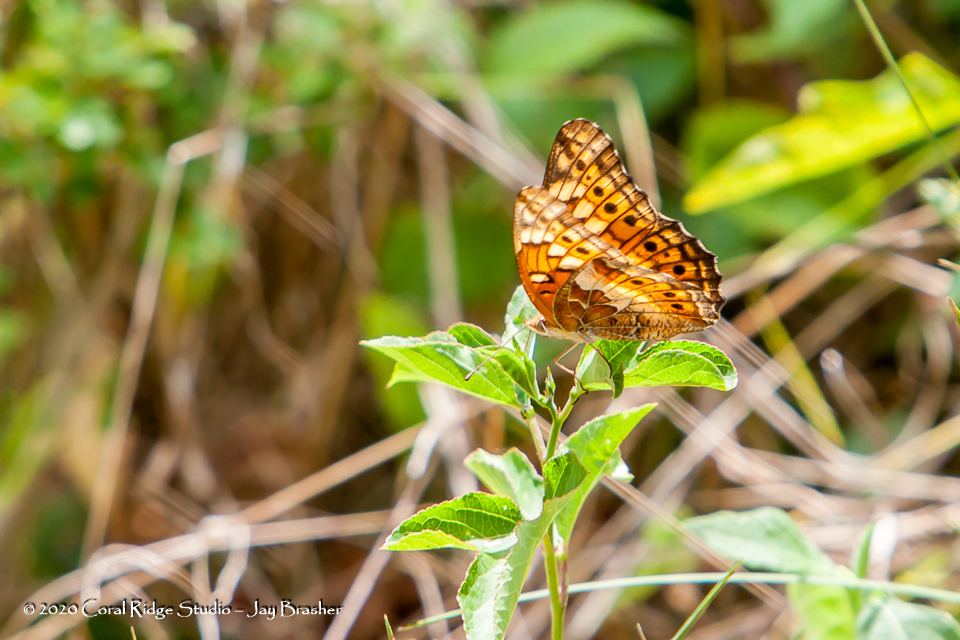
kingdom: Animalia
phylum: Arthropoda
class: Insecta
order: Lepidoptera
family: Nymphalidae
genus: Euptoieta
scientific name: Euptoieta claudia
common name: Variegated fritillary
